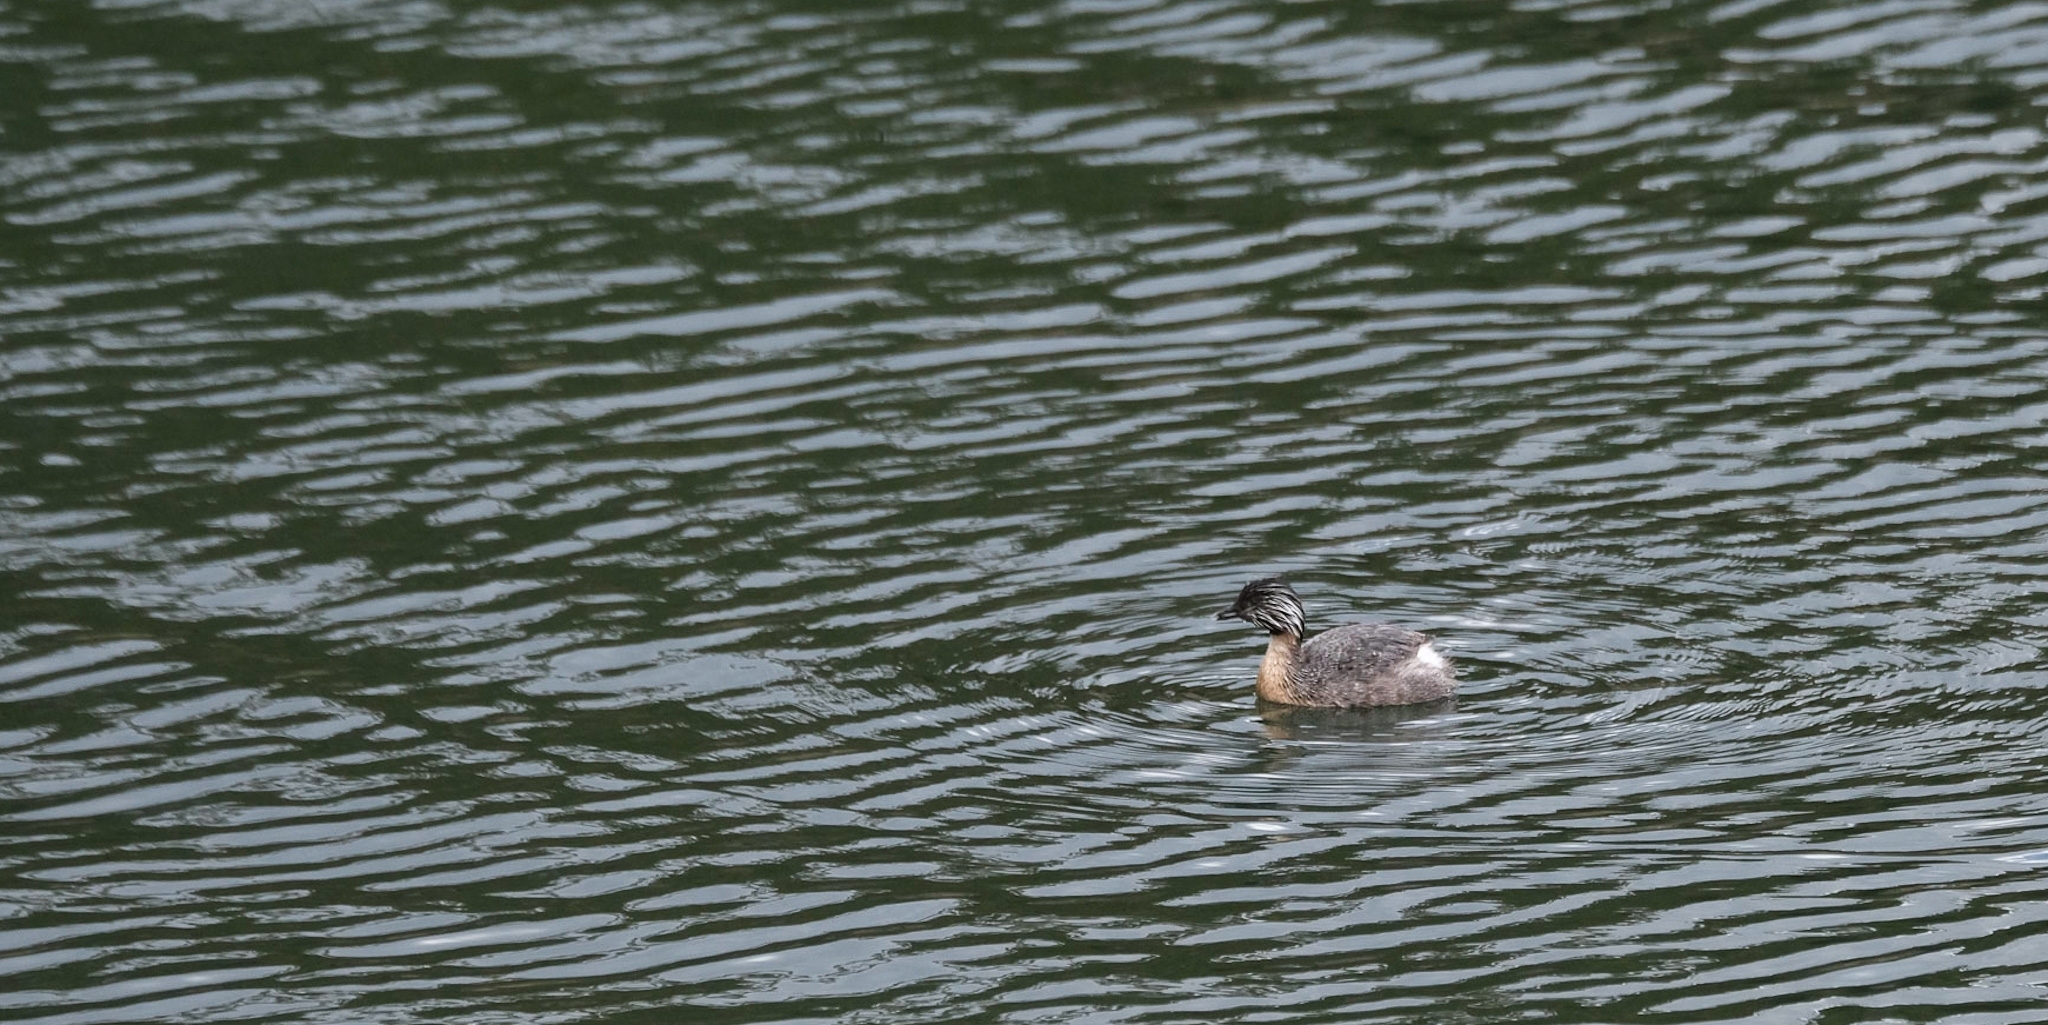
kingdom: Animalia
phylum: Chordata
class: Aves
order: Podicipediformes
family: Podicipedidae
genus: Poliocephalus
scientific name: Poliocephalus poliocephalus
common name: Hoary-headed grebe
